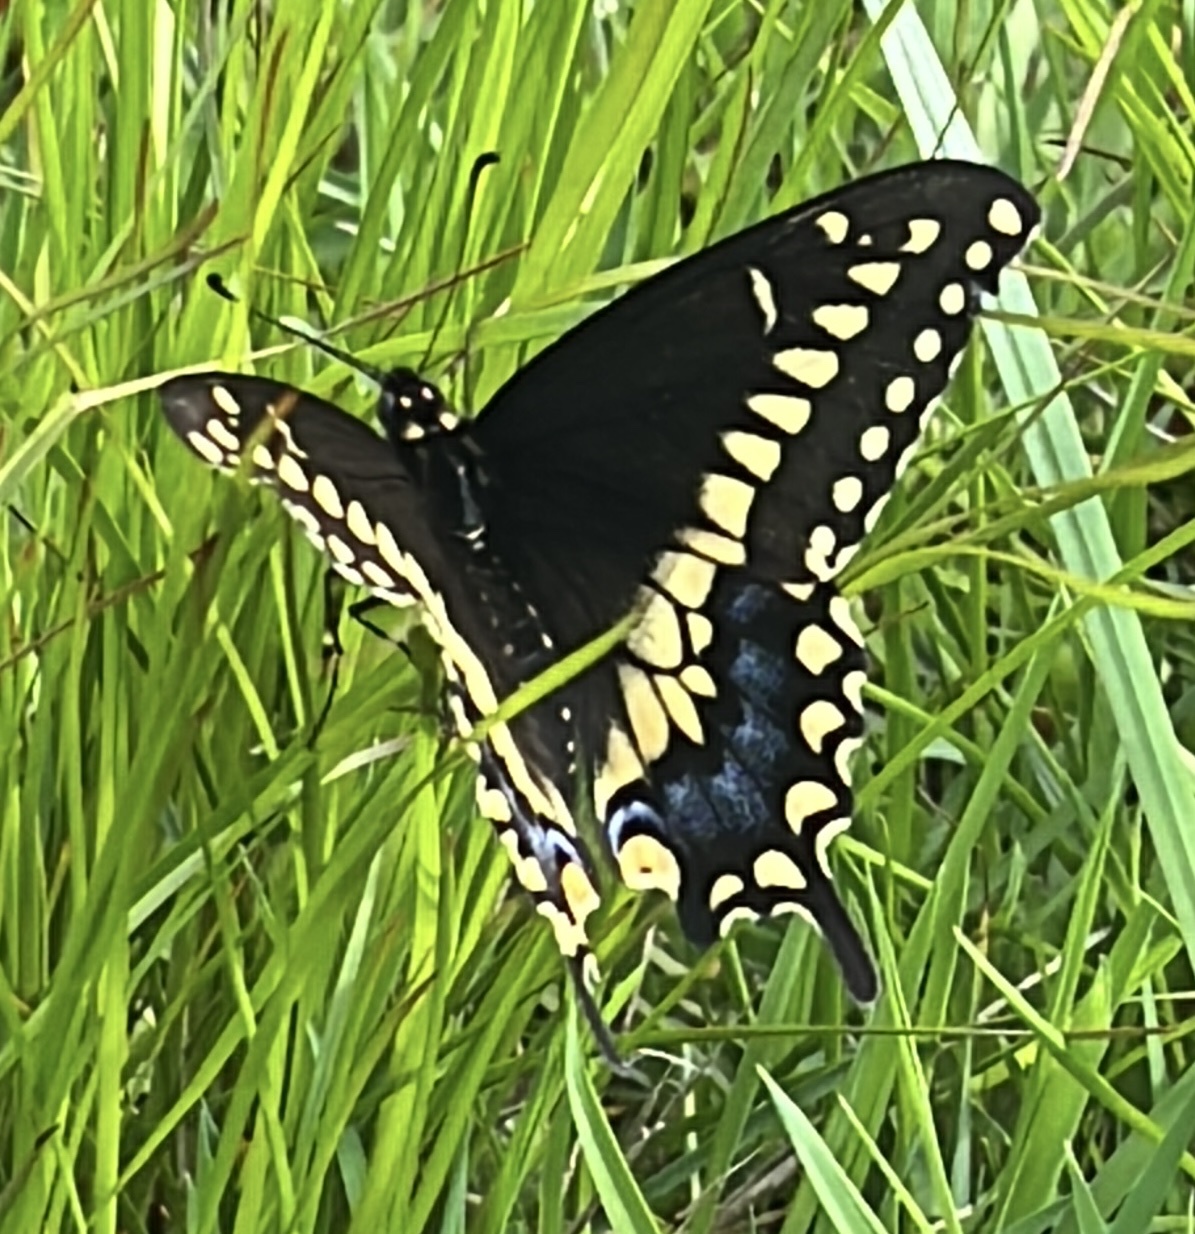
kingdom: Animalia
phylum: Arthropoda
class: Insecta
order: Lepidoptera
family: Papilionidae
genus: Papilio
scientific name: Papilio polyxenes
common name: Black swallowtail
